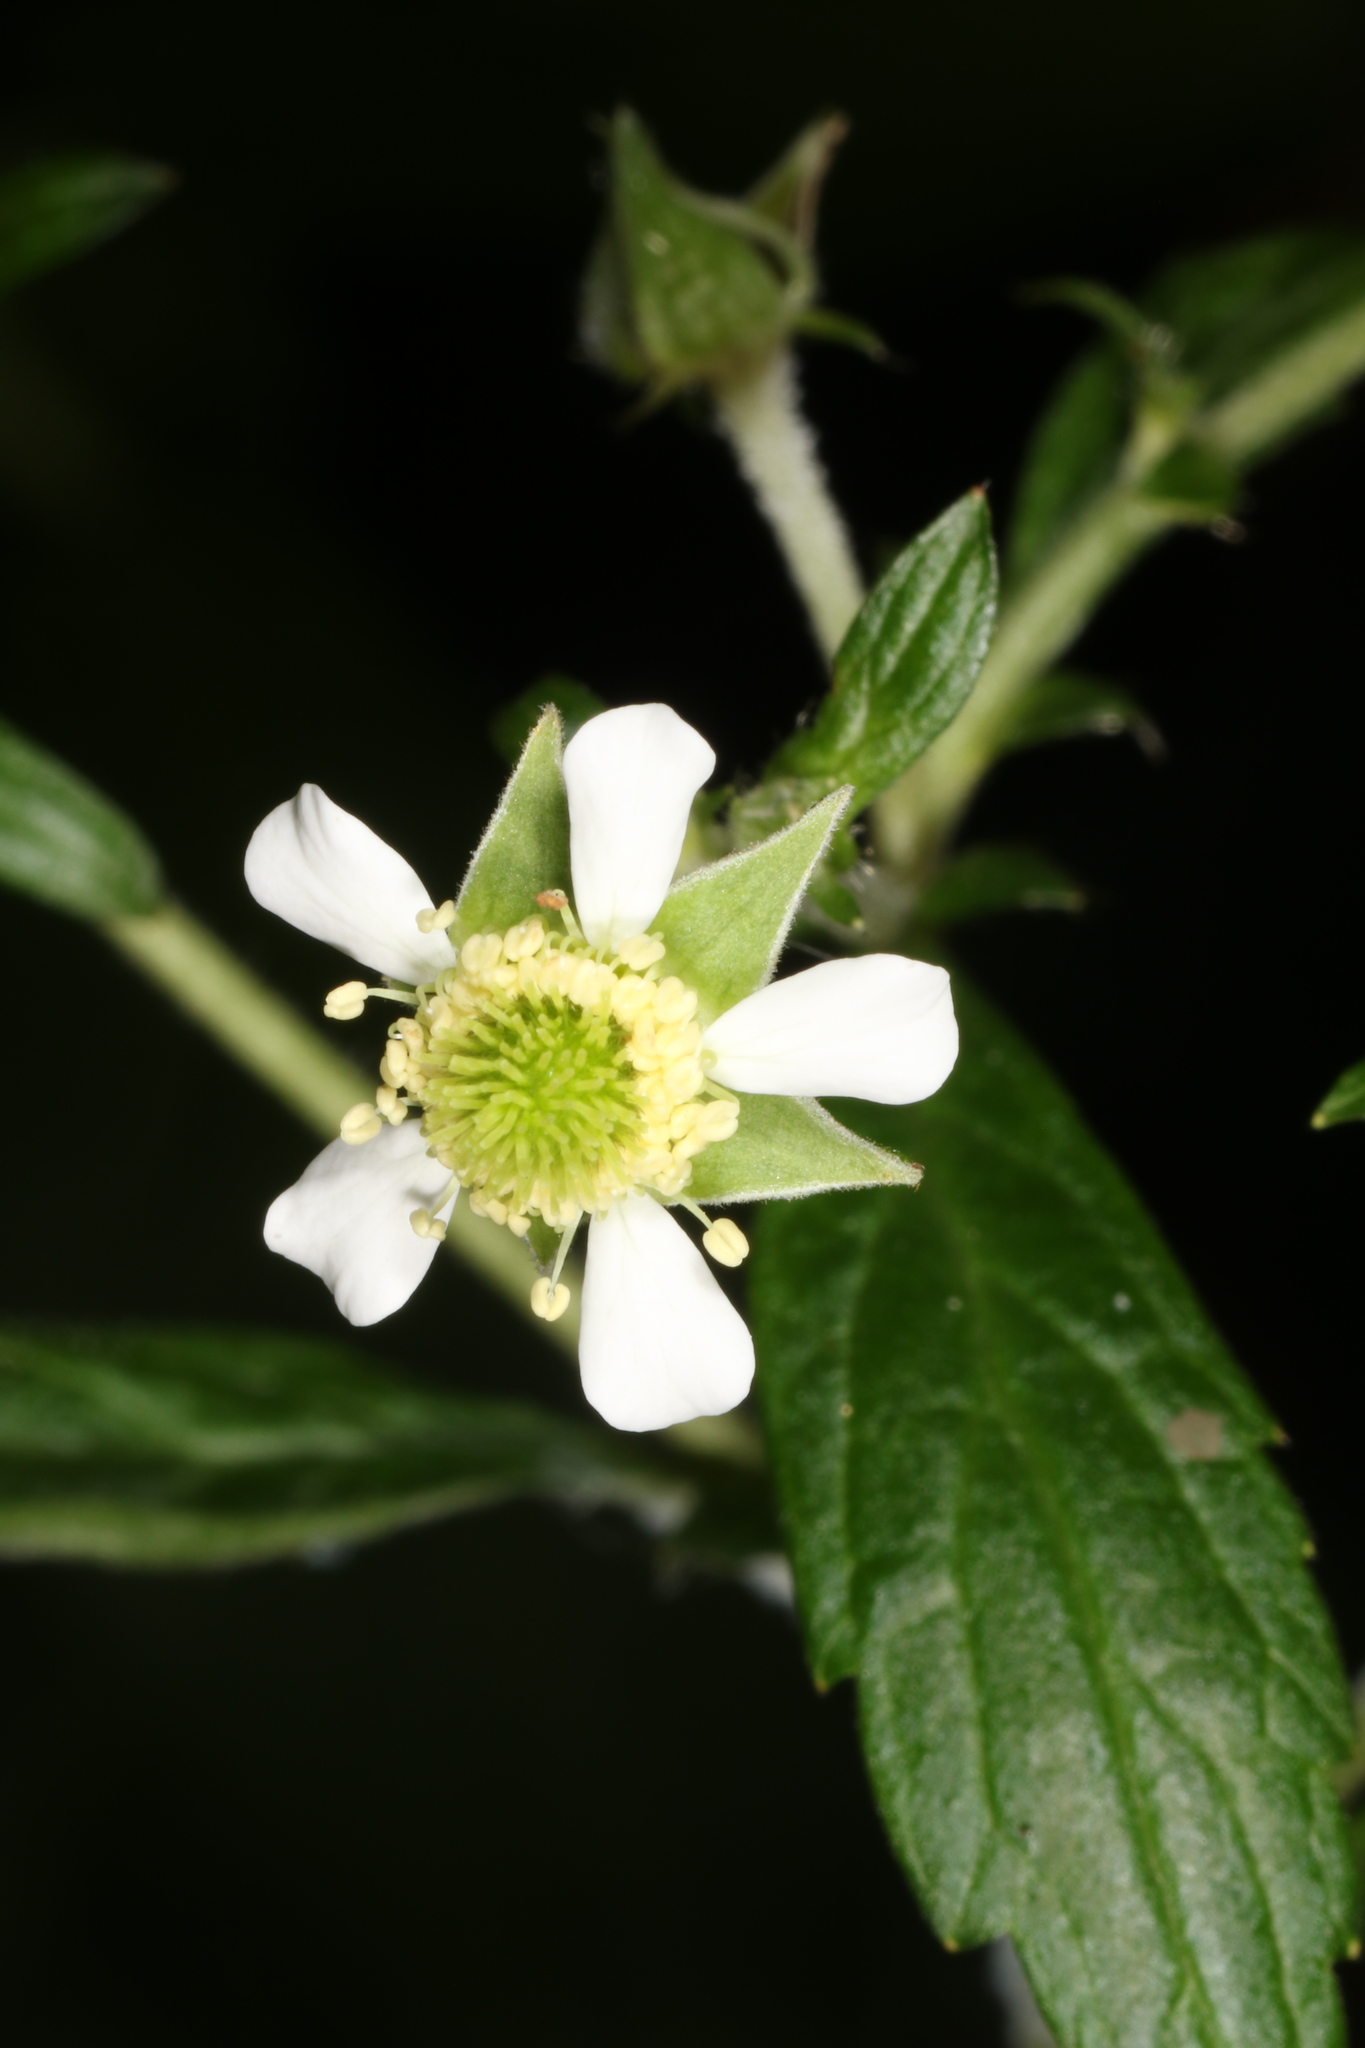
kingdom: Plantae
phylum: Tracheophyta
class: Magnoliopsida
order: Rosales
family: Rosaceae
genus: Geum
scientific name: Geum canadense
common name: White avens
